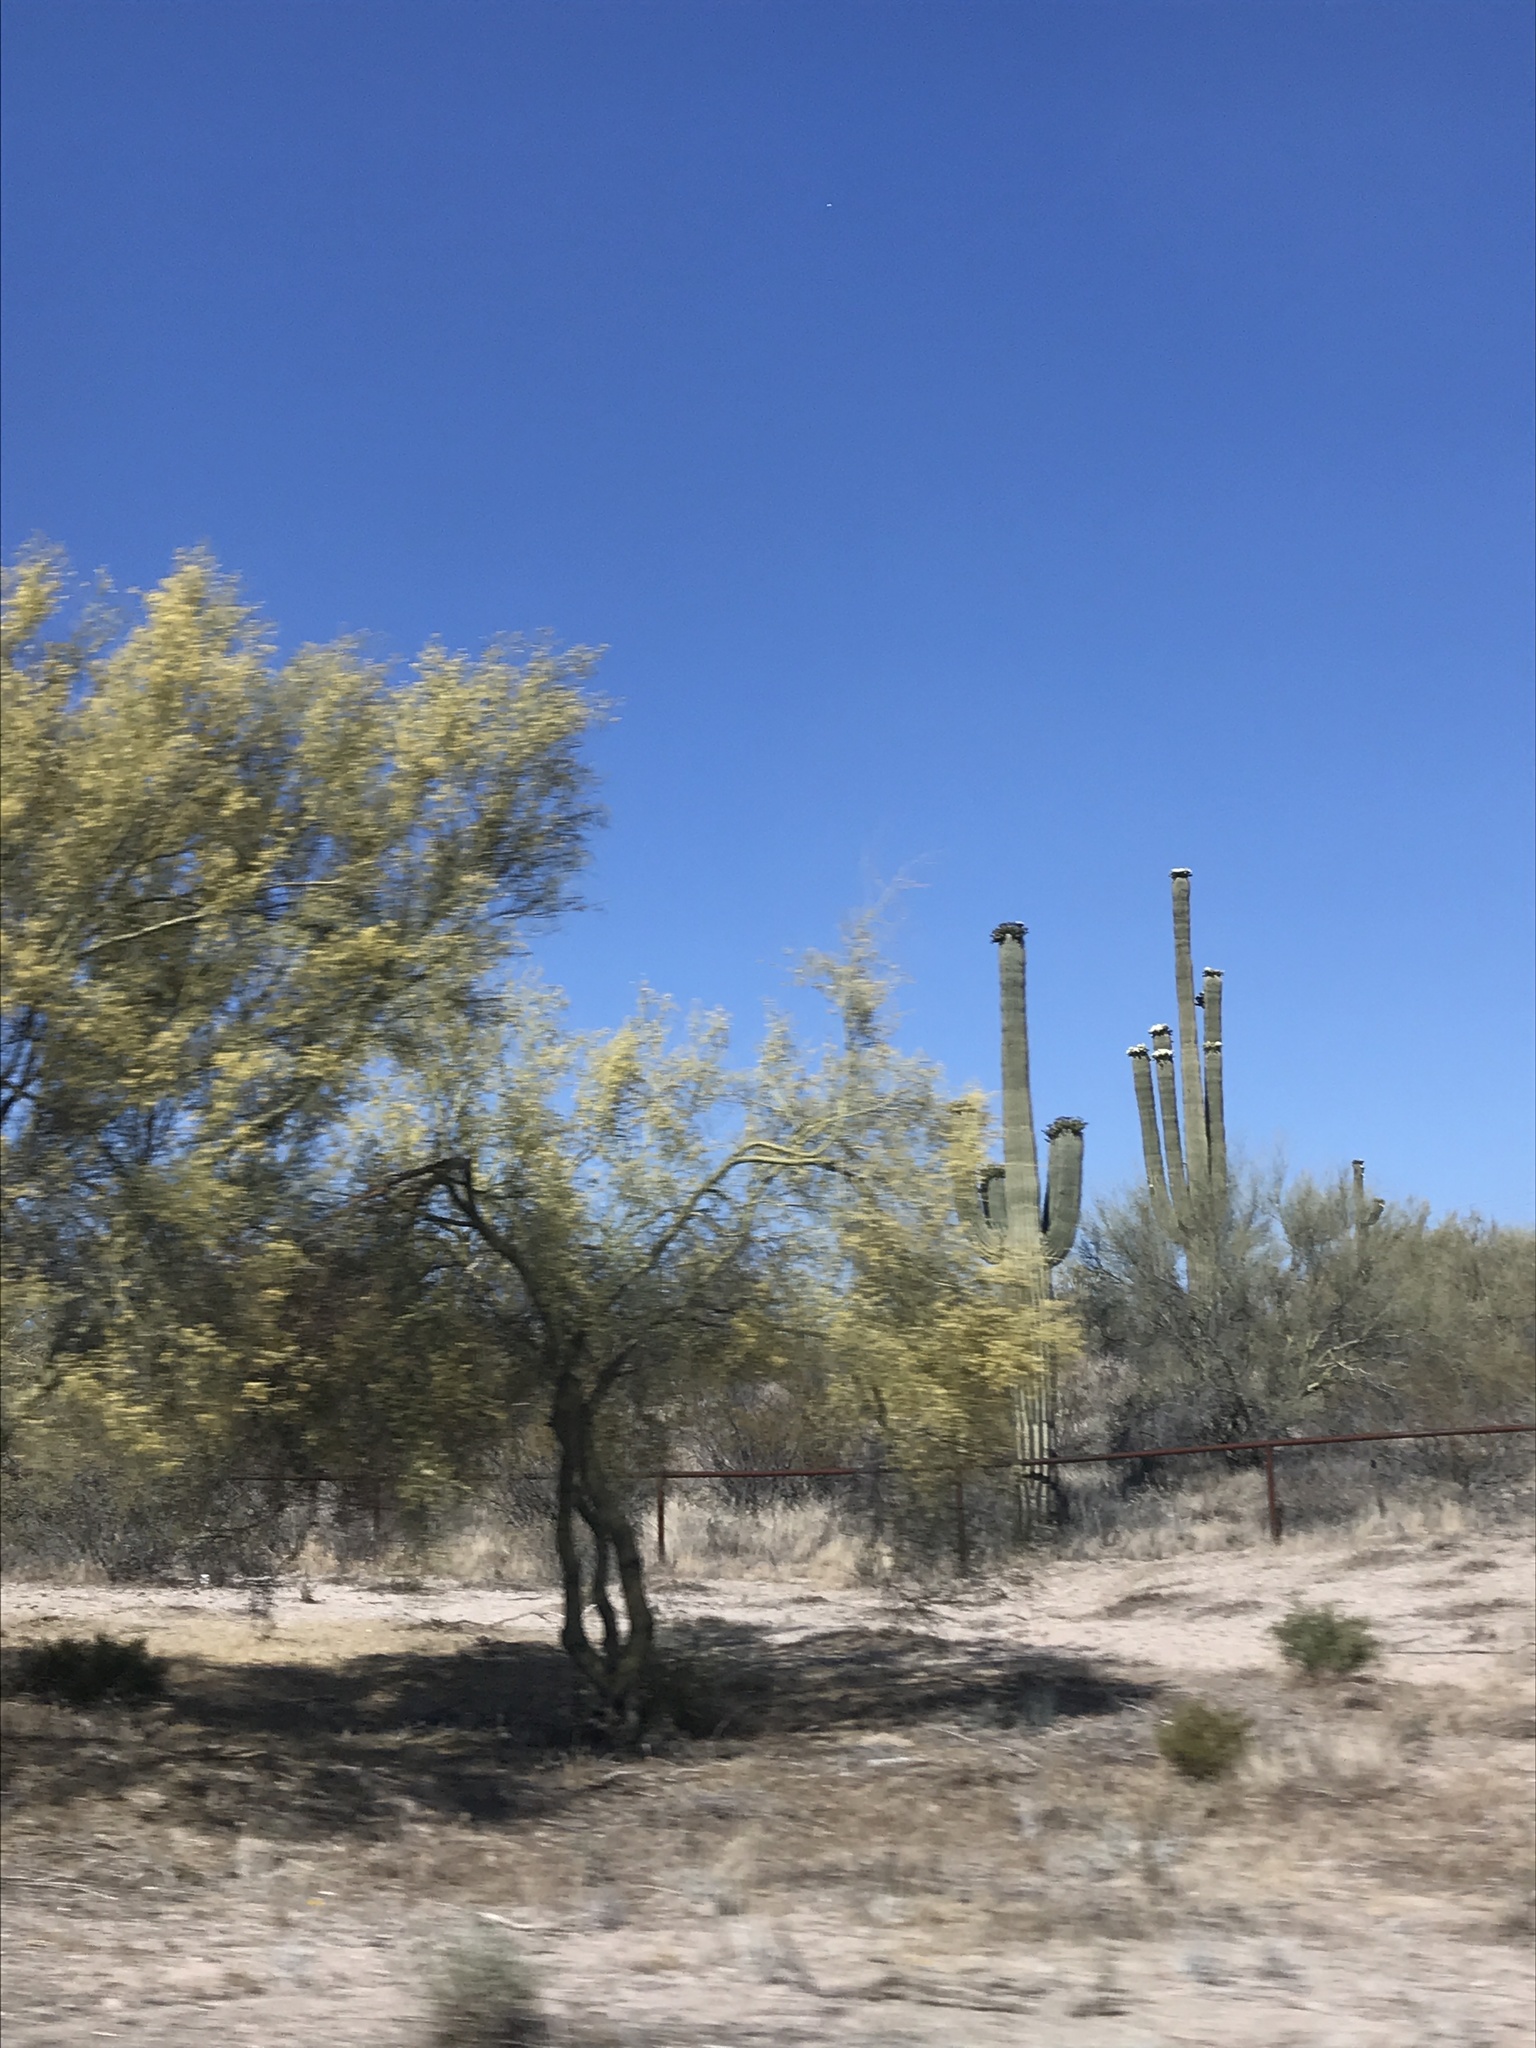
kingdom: Plantae
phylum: Tracheophyta
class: Magnoliopsida
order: Caryophyllales
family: Cactaceae
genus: Carnegiea
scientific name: Carnegiea gigantea
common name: Saguaro
